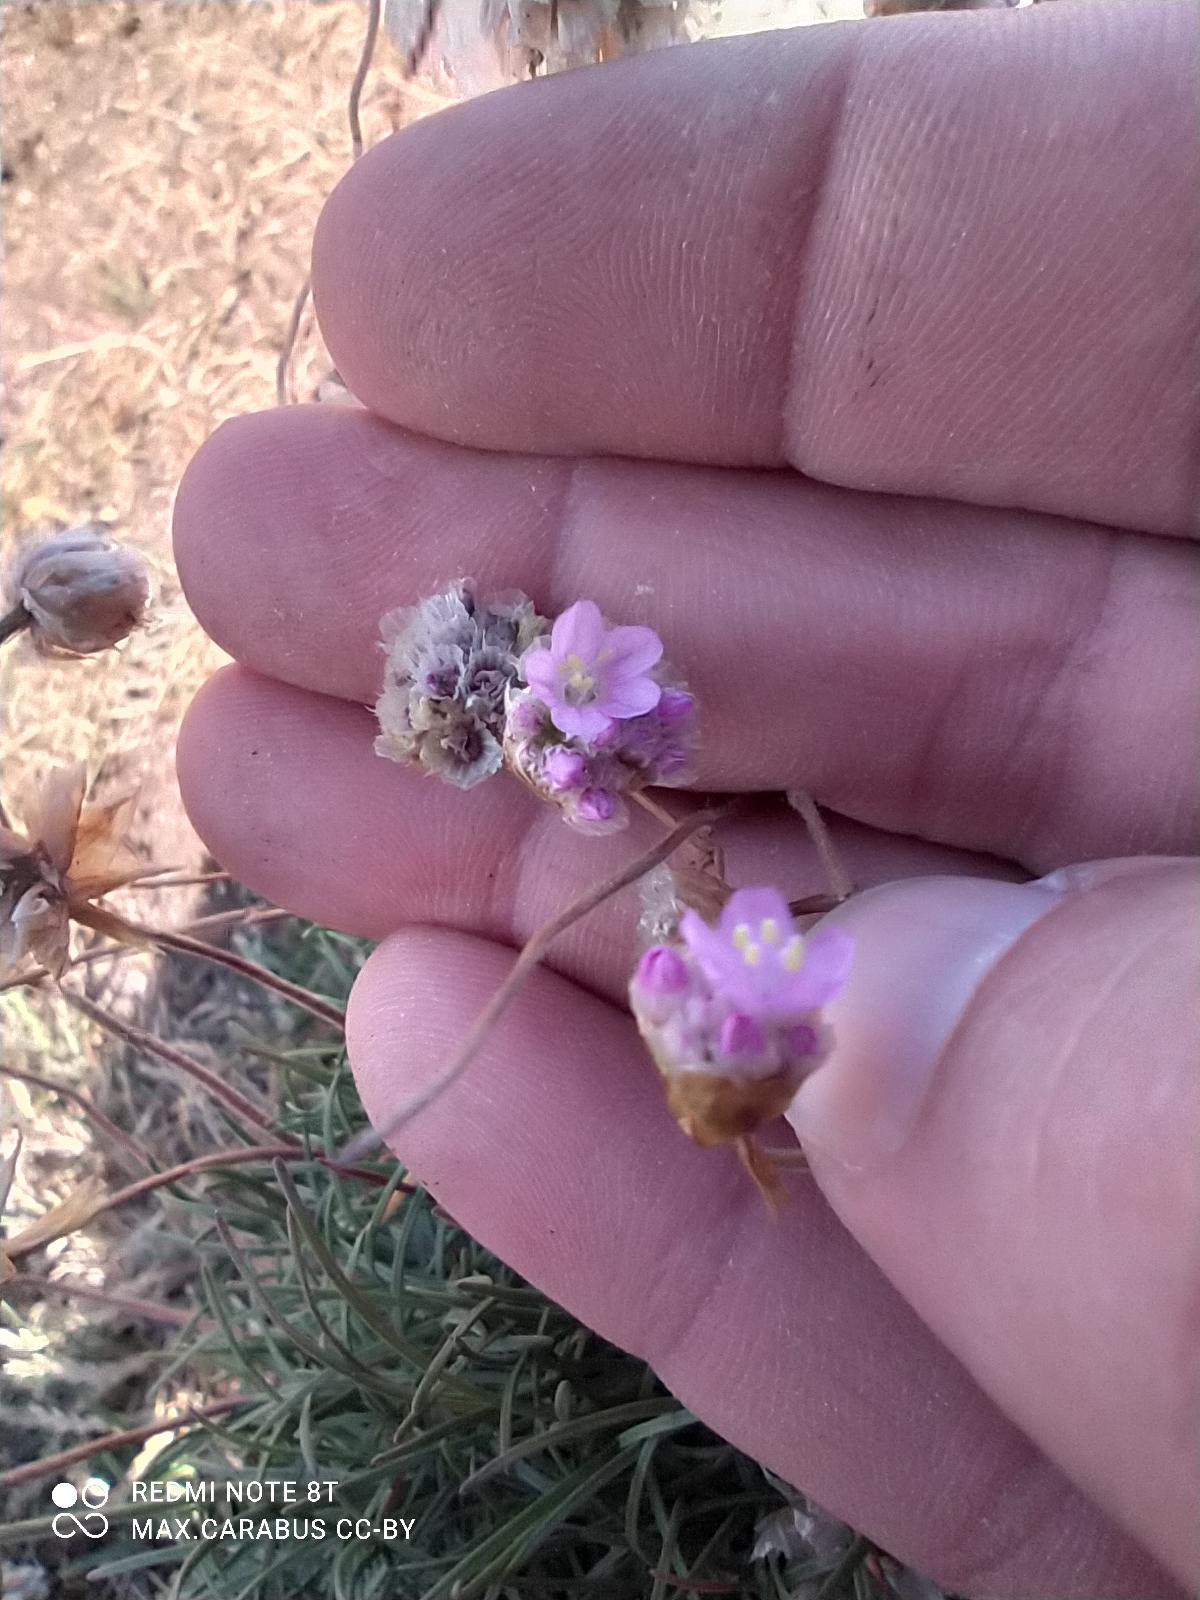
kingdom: Plantae
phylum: Tracheophyta
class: Magnoliopsida
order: Caryophyllales
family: Plumbaginaceae
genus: Armeria
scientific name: Armeria maritima
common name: Thrift
